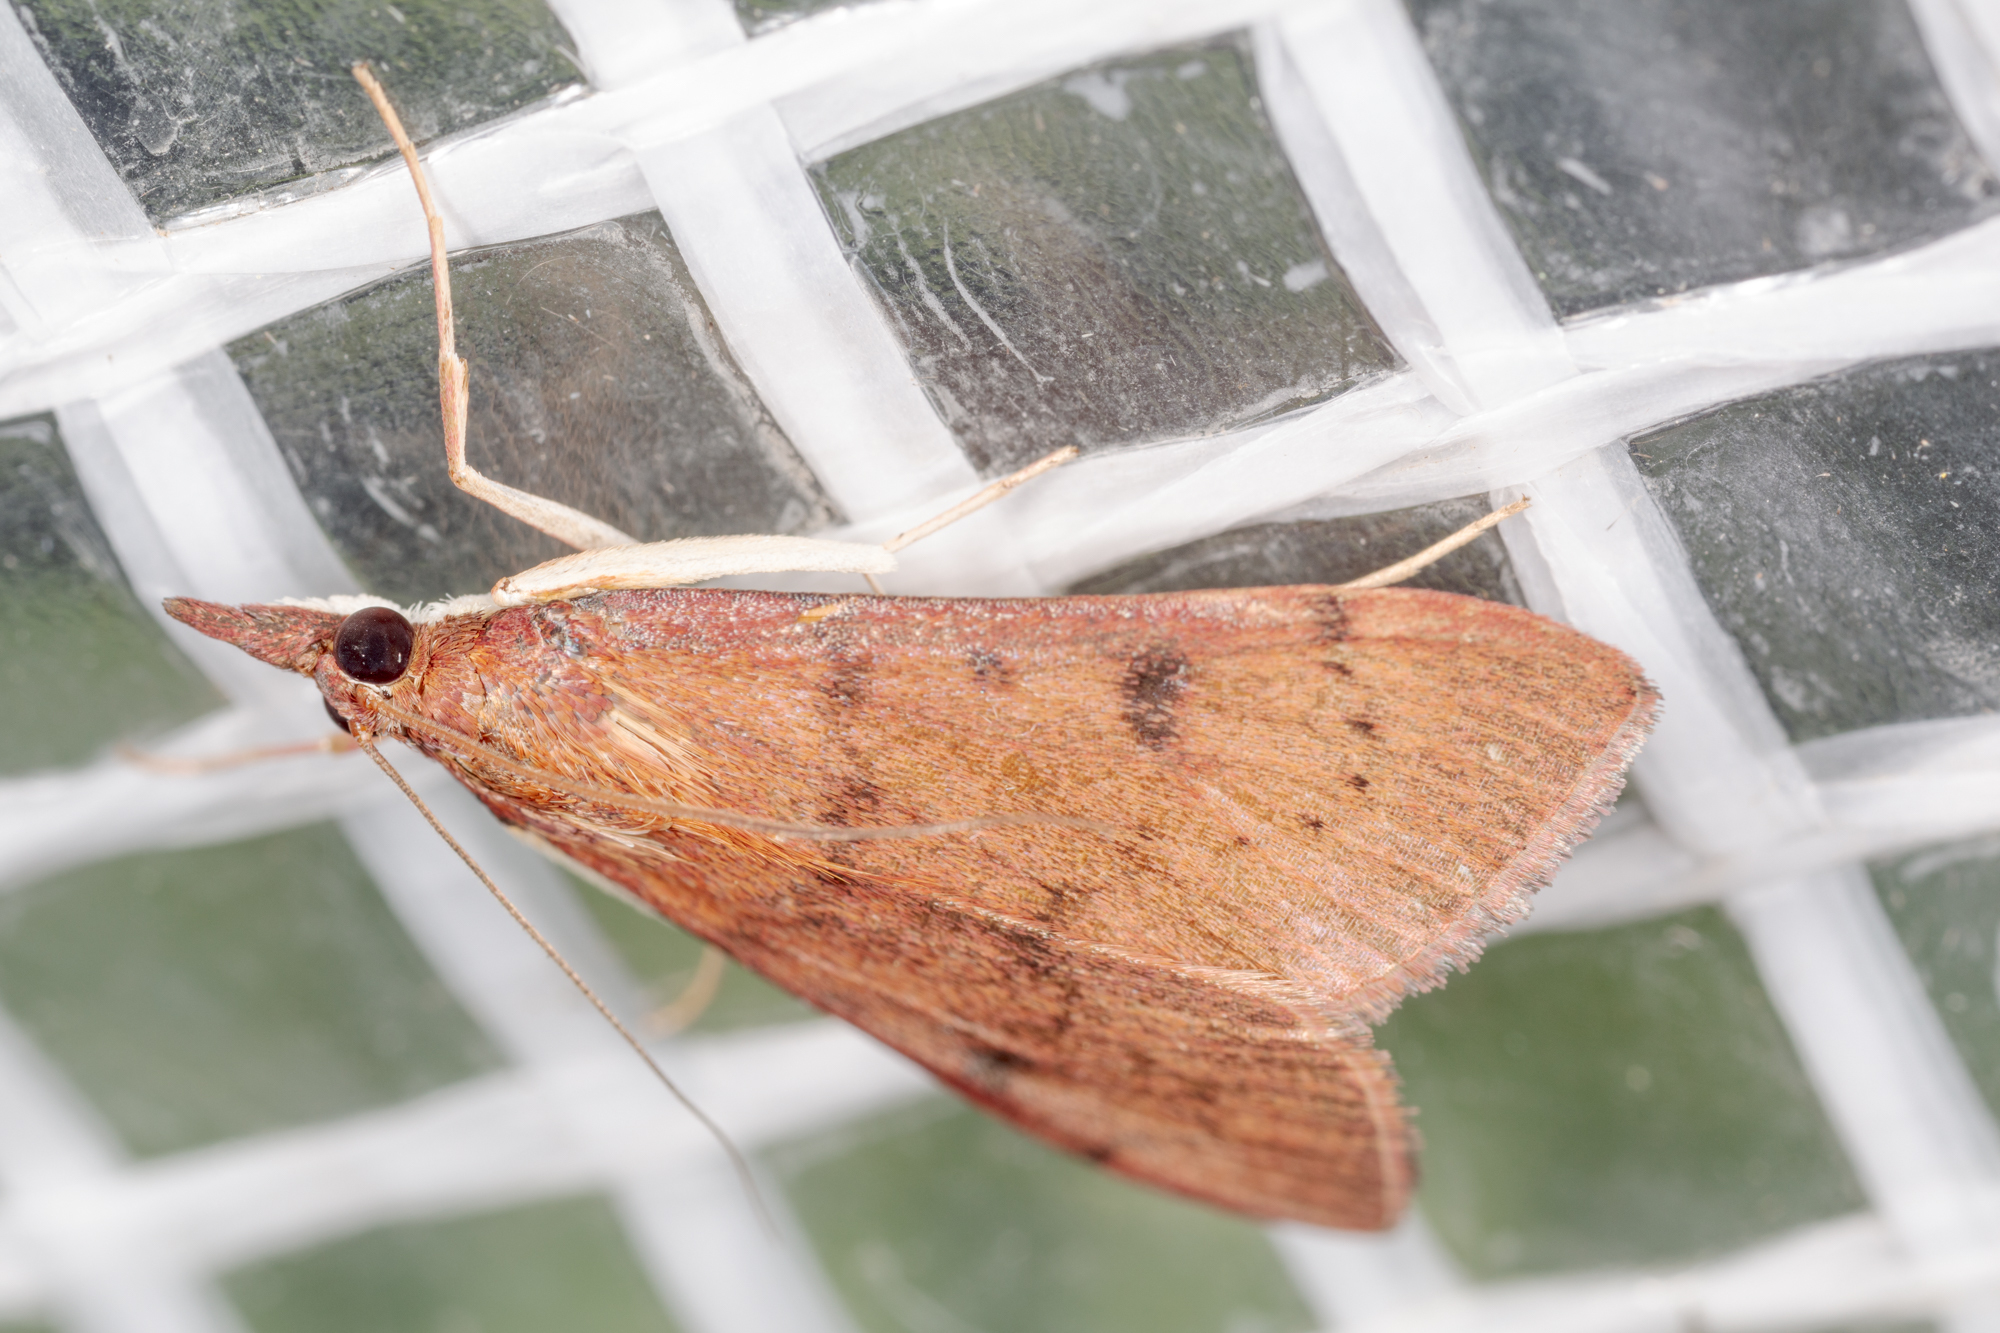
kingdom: Animalia
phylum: Arthropoda
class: Insecta
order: Lepidoptera
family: Crambidae
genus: Uresiphita
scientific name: Uresiphita reversalis
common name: Genista broom moth
